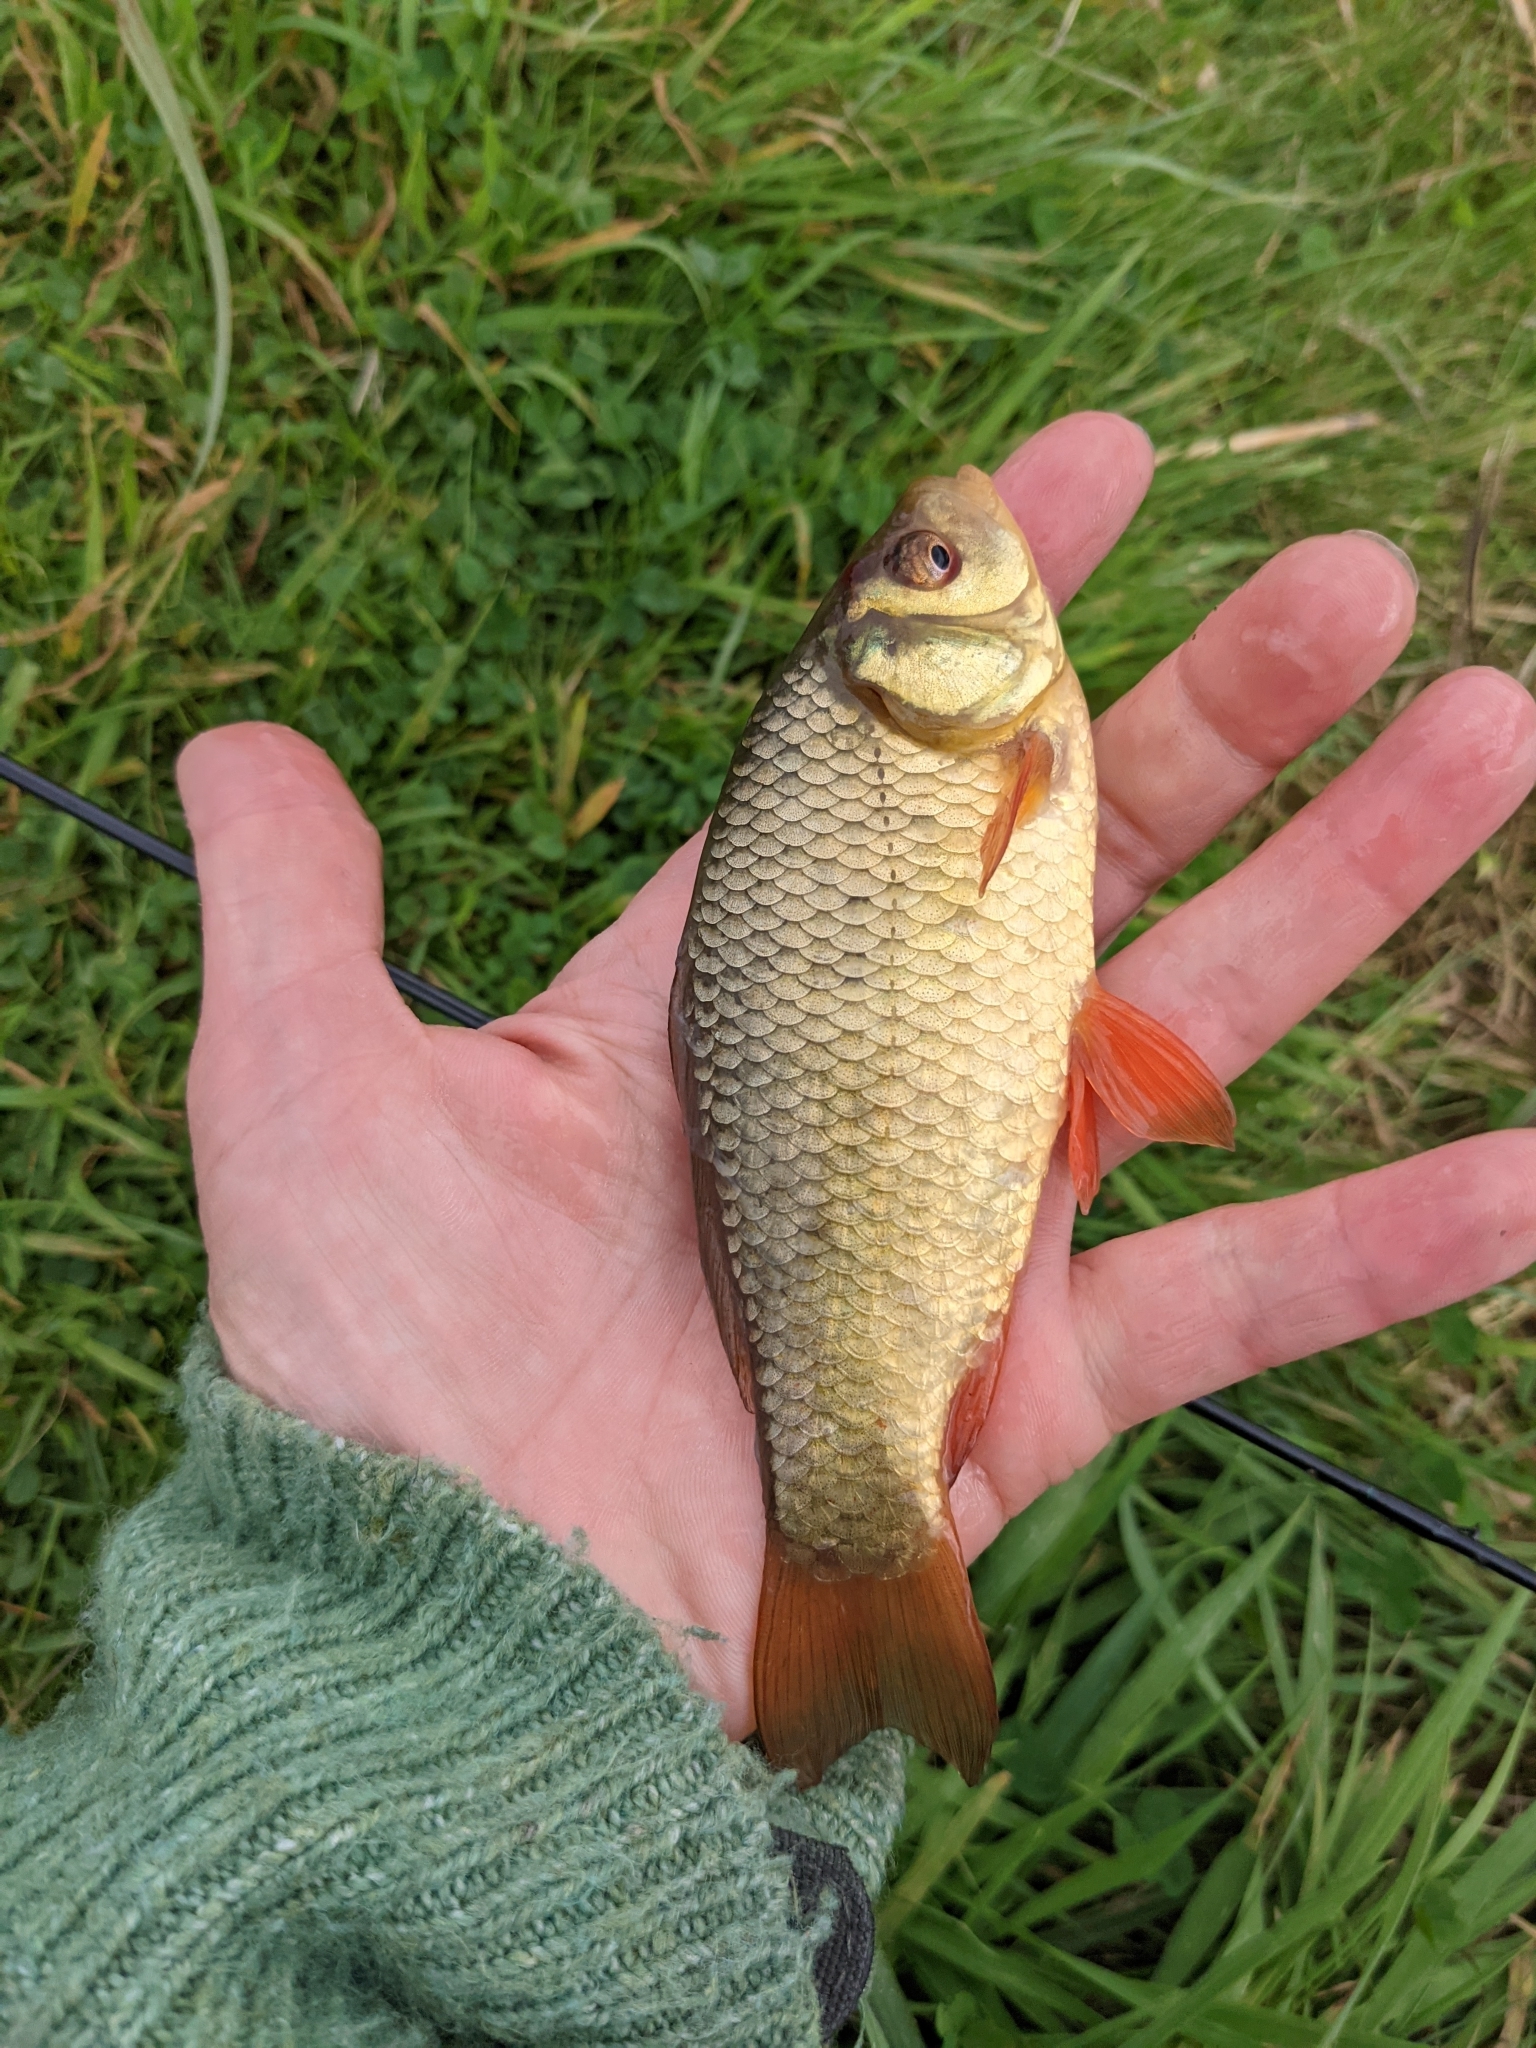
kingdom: Animalia
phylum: Chordata
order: Cypriniformes
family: Cyprinidae
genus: Carassius
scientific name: Carassius carassius
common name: Crucian carp
